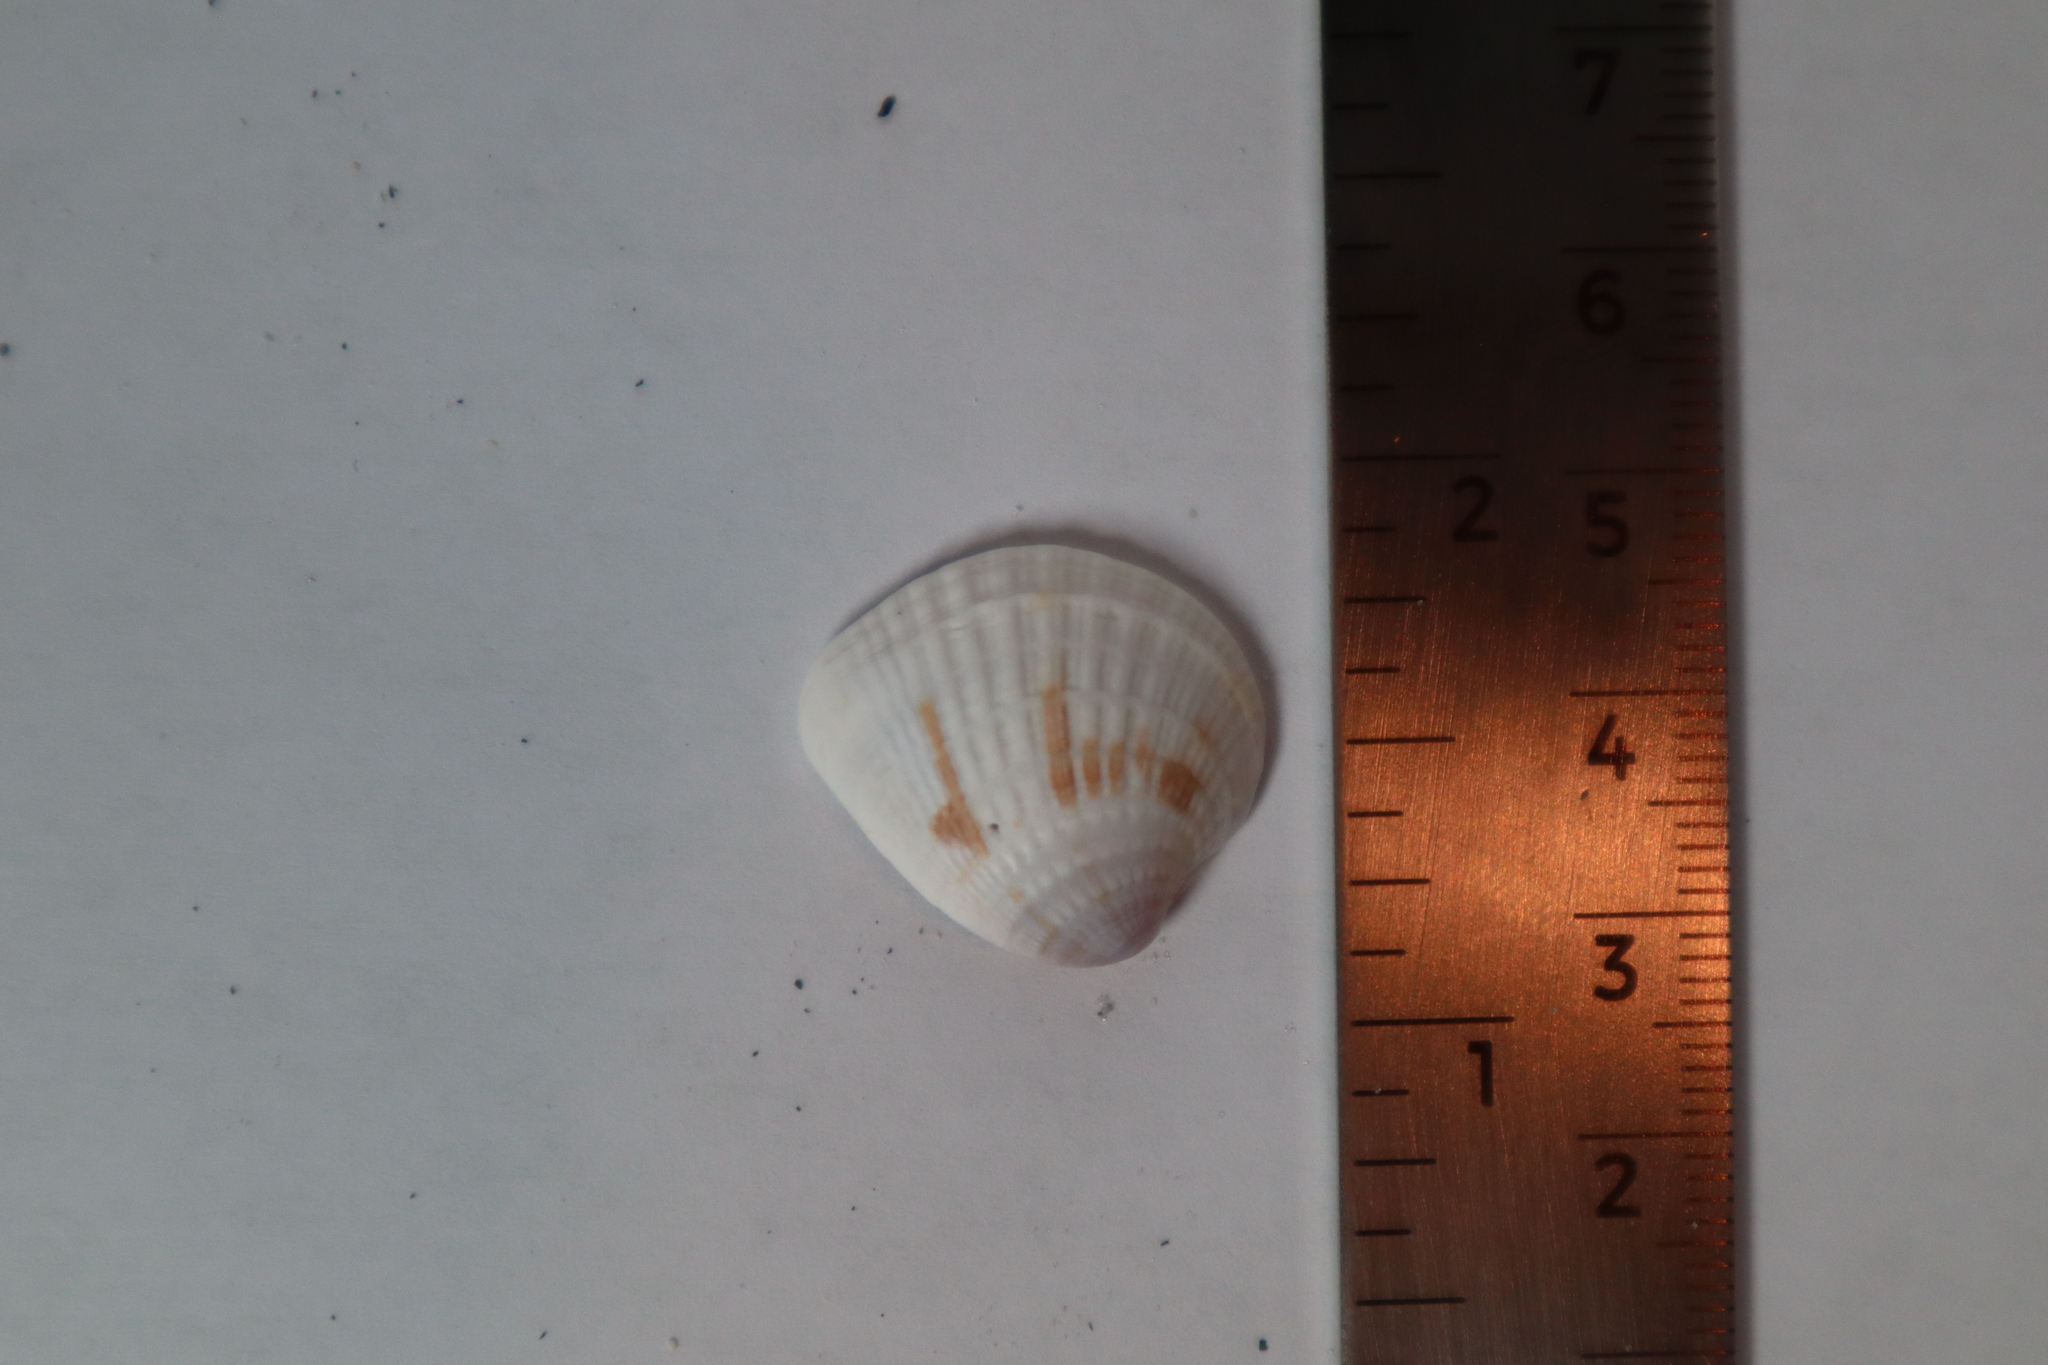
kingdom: Animalia
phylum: Mollusca
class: Bivalvia
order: Venerida
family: Veneridae
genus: Chione
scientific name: Chione elevata
